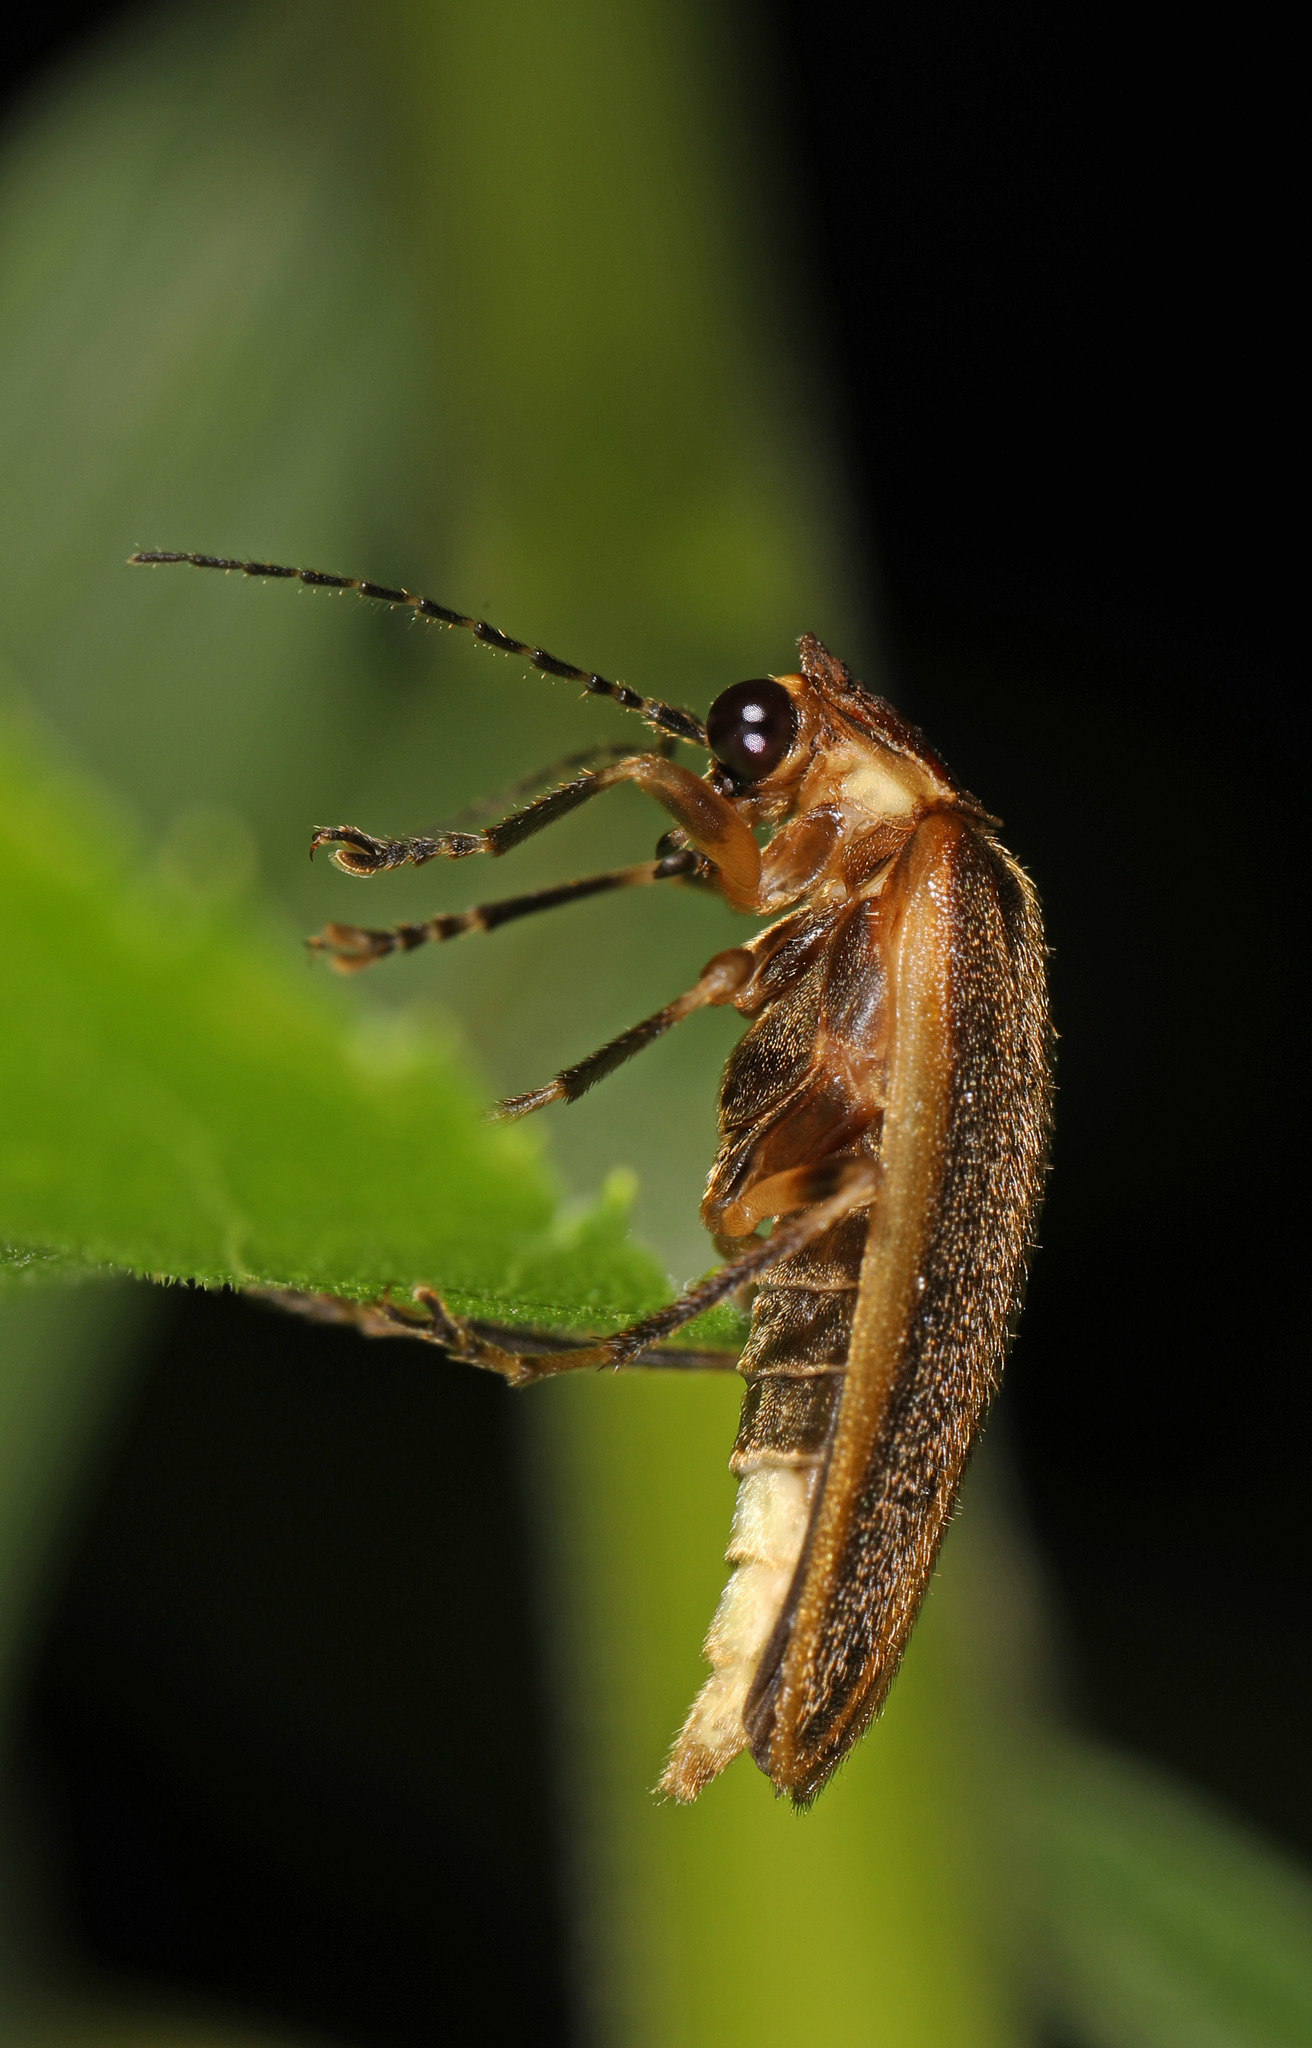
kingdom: Animalia
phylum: Arthropoda
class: Insecta
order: Coleoptera
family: Lampyridae
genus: Photuris
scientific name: Photuris
